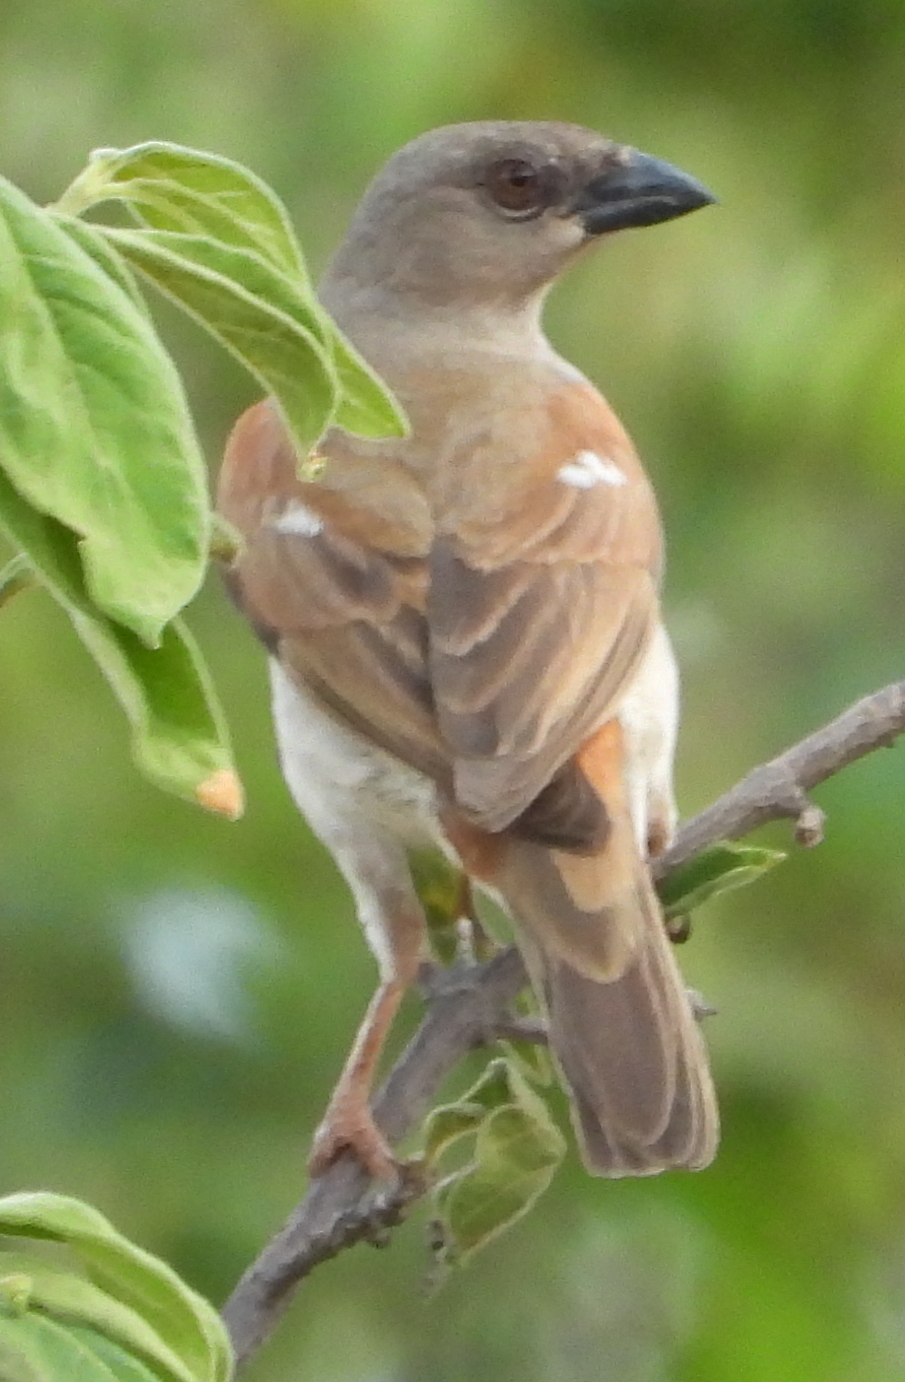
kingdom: Animalia
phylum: Chordata
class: Aves
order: Passeriformes
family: Passeridae
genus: Passer
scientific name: Passer griseus
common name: Northern grey-headed sparrow
